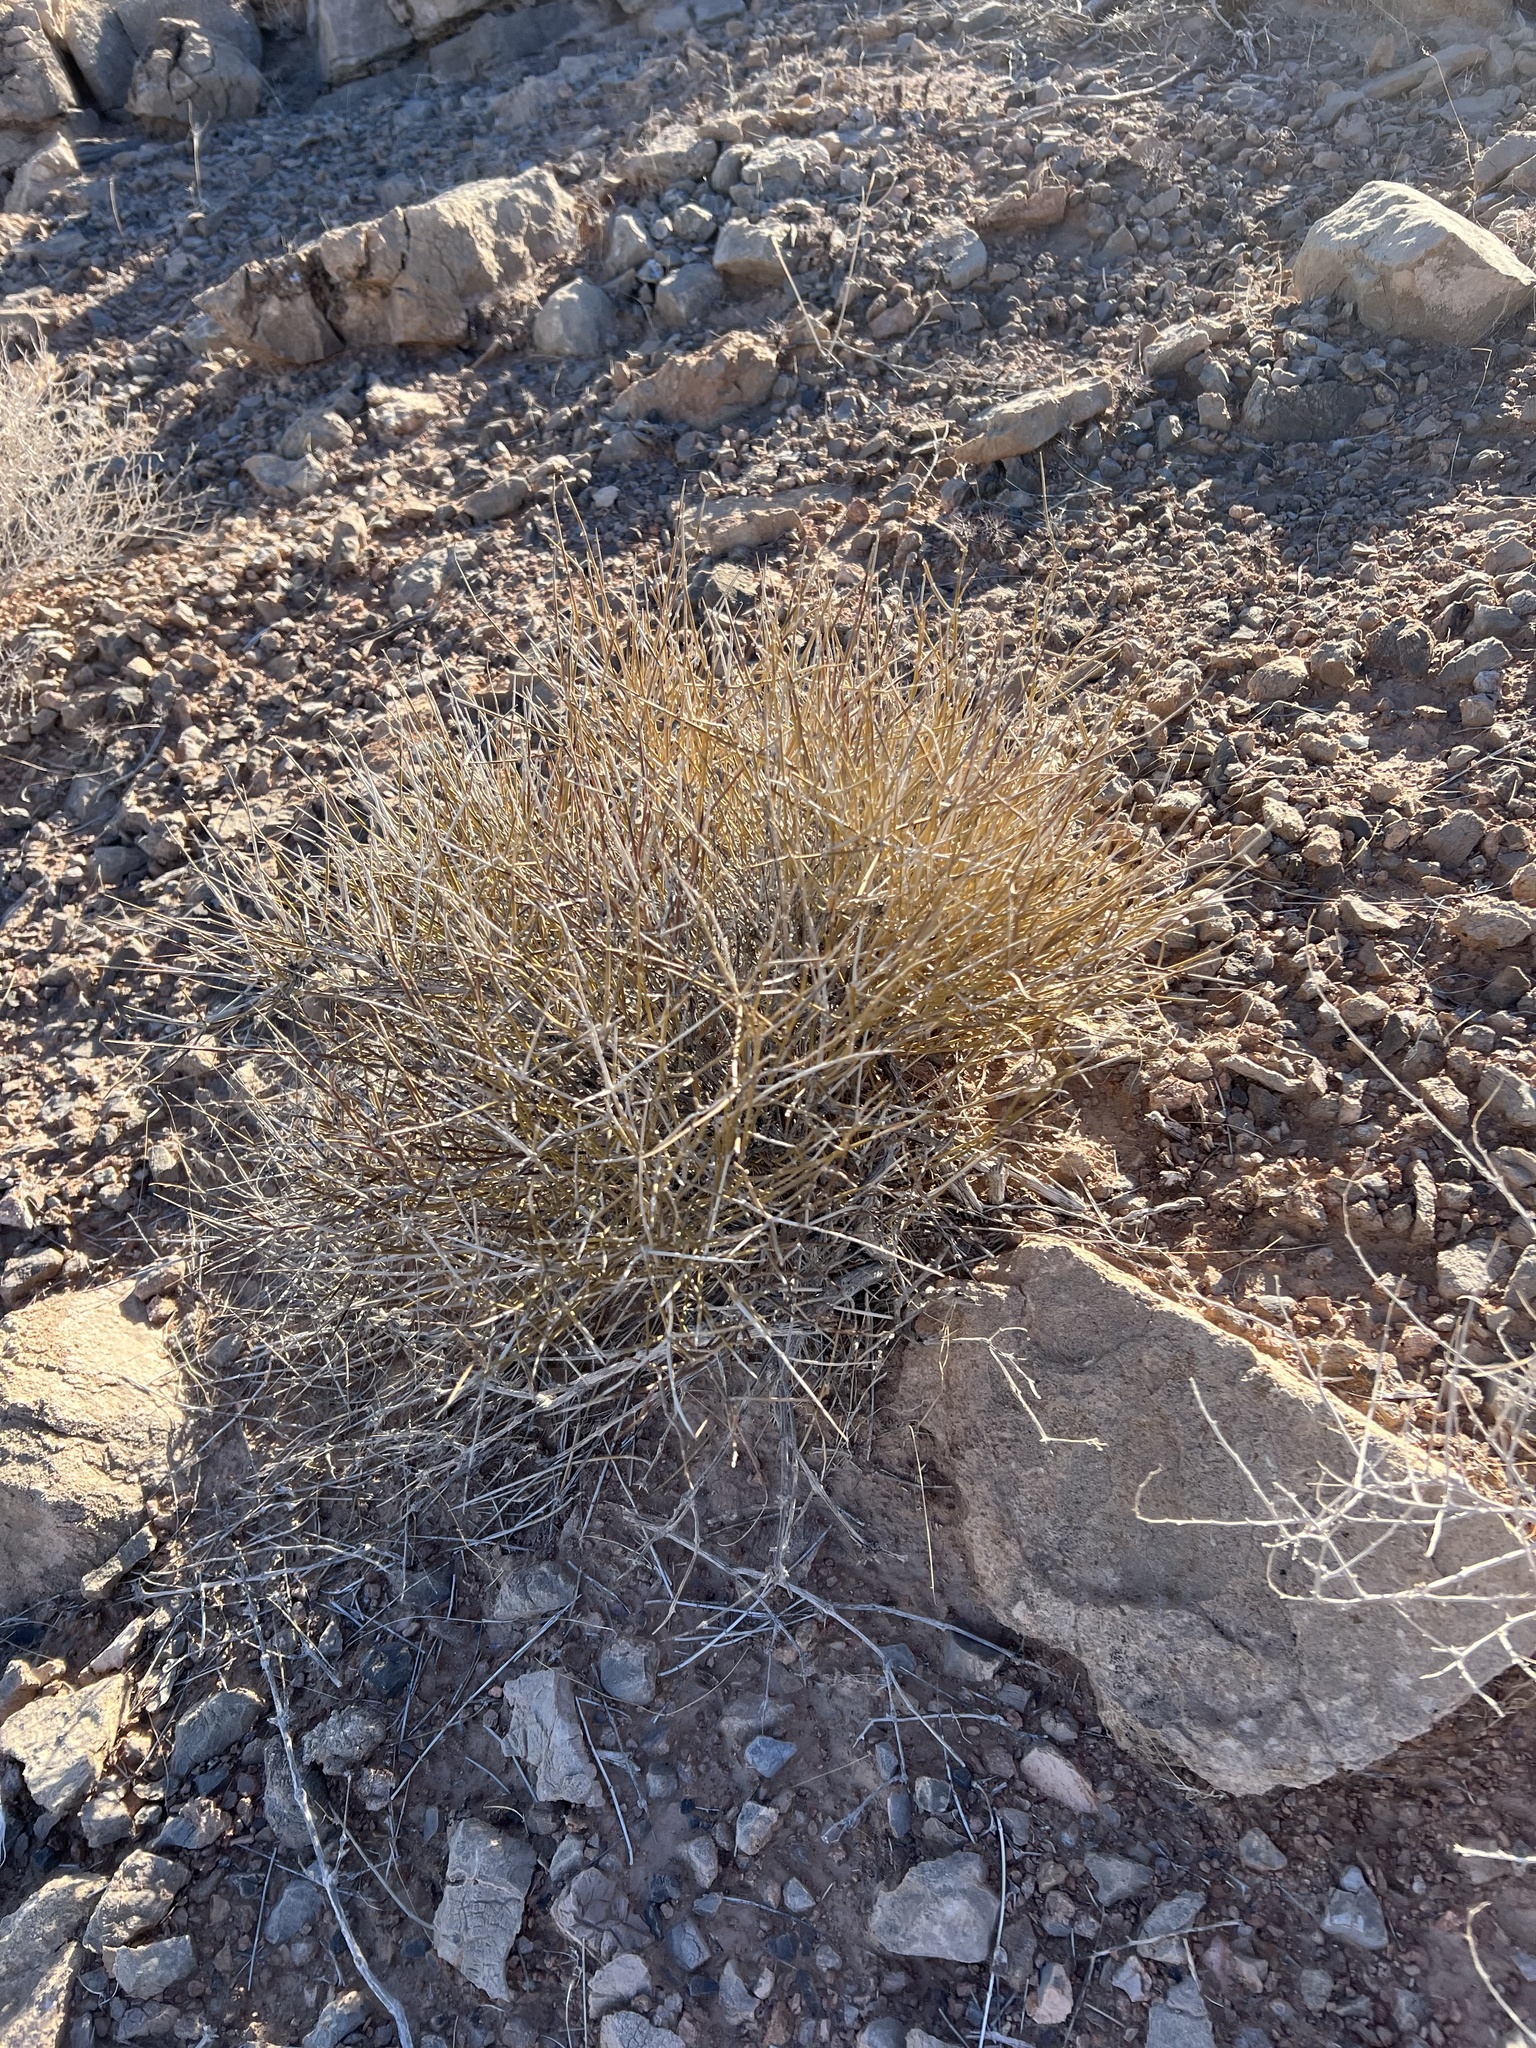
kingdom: Plantae
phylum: Tracheophyta
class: Gnetopsida
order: Ephedrales
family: Ephedraceae
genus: Ephedra
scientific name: Ephedra nevadensis
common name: Gray ephedra
